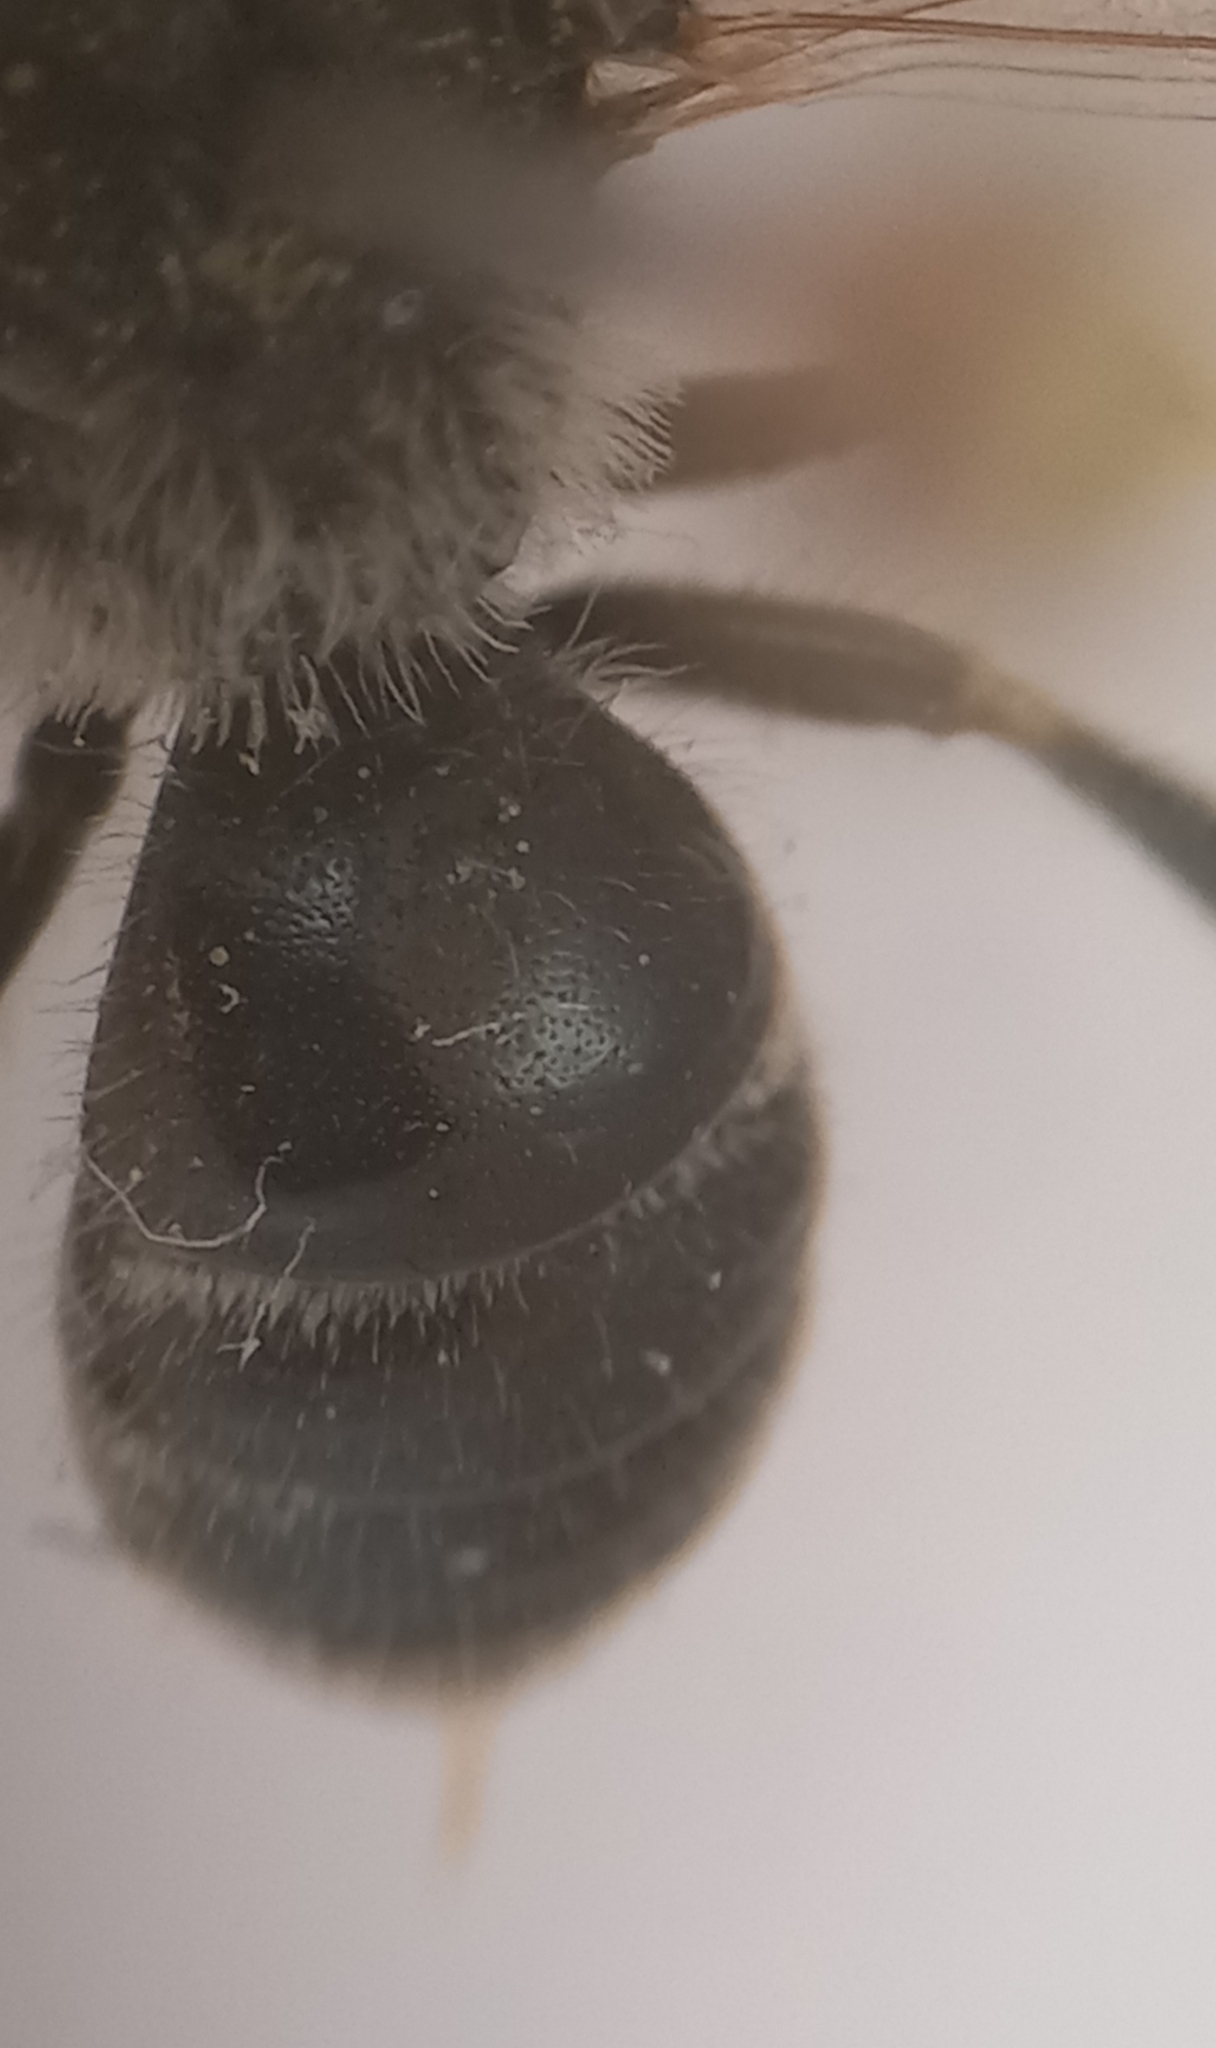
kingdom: Animalia
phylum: Arthropoda
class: Insecta
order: Hymenoptera
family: Halictidae
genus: Lasioglossum
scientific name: Lasioglossum leucozonium
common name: White-zoned furrow bee
